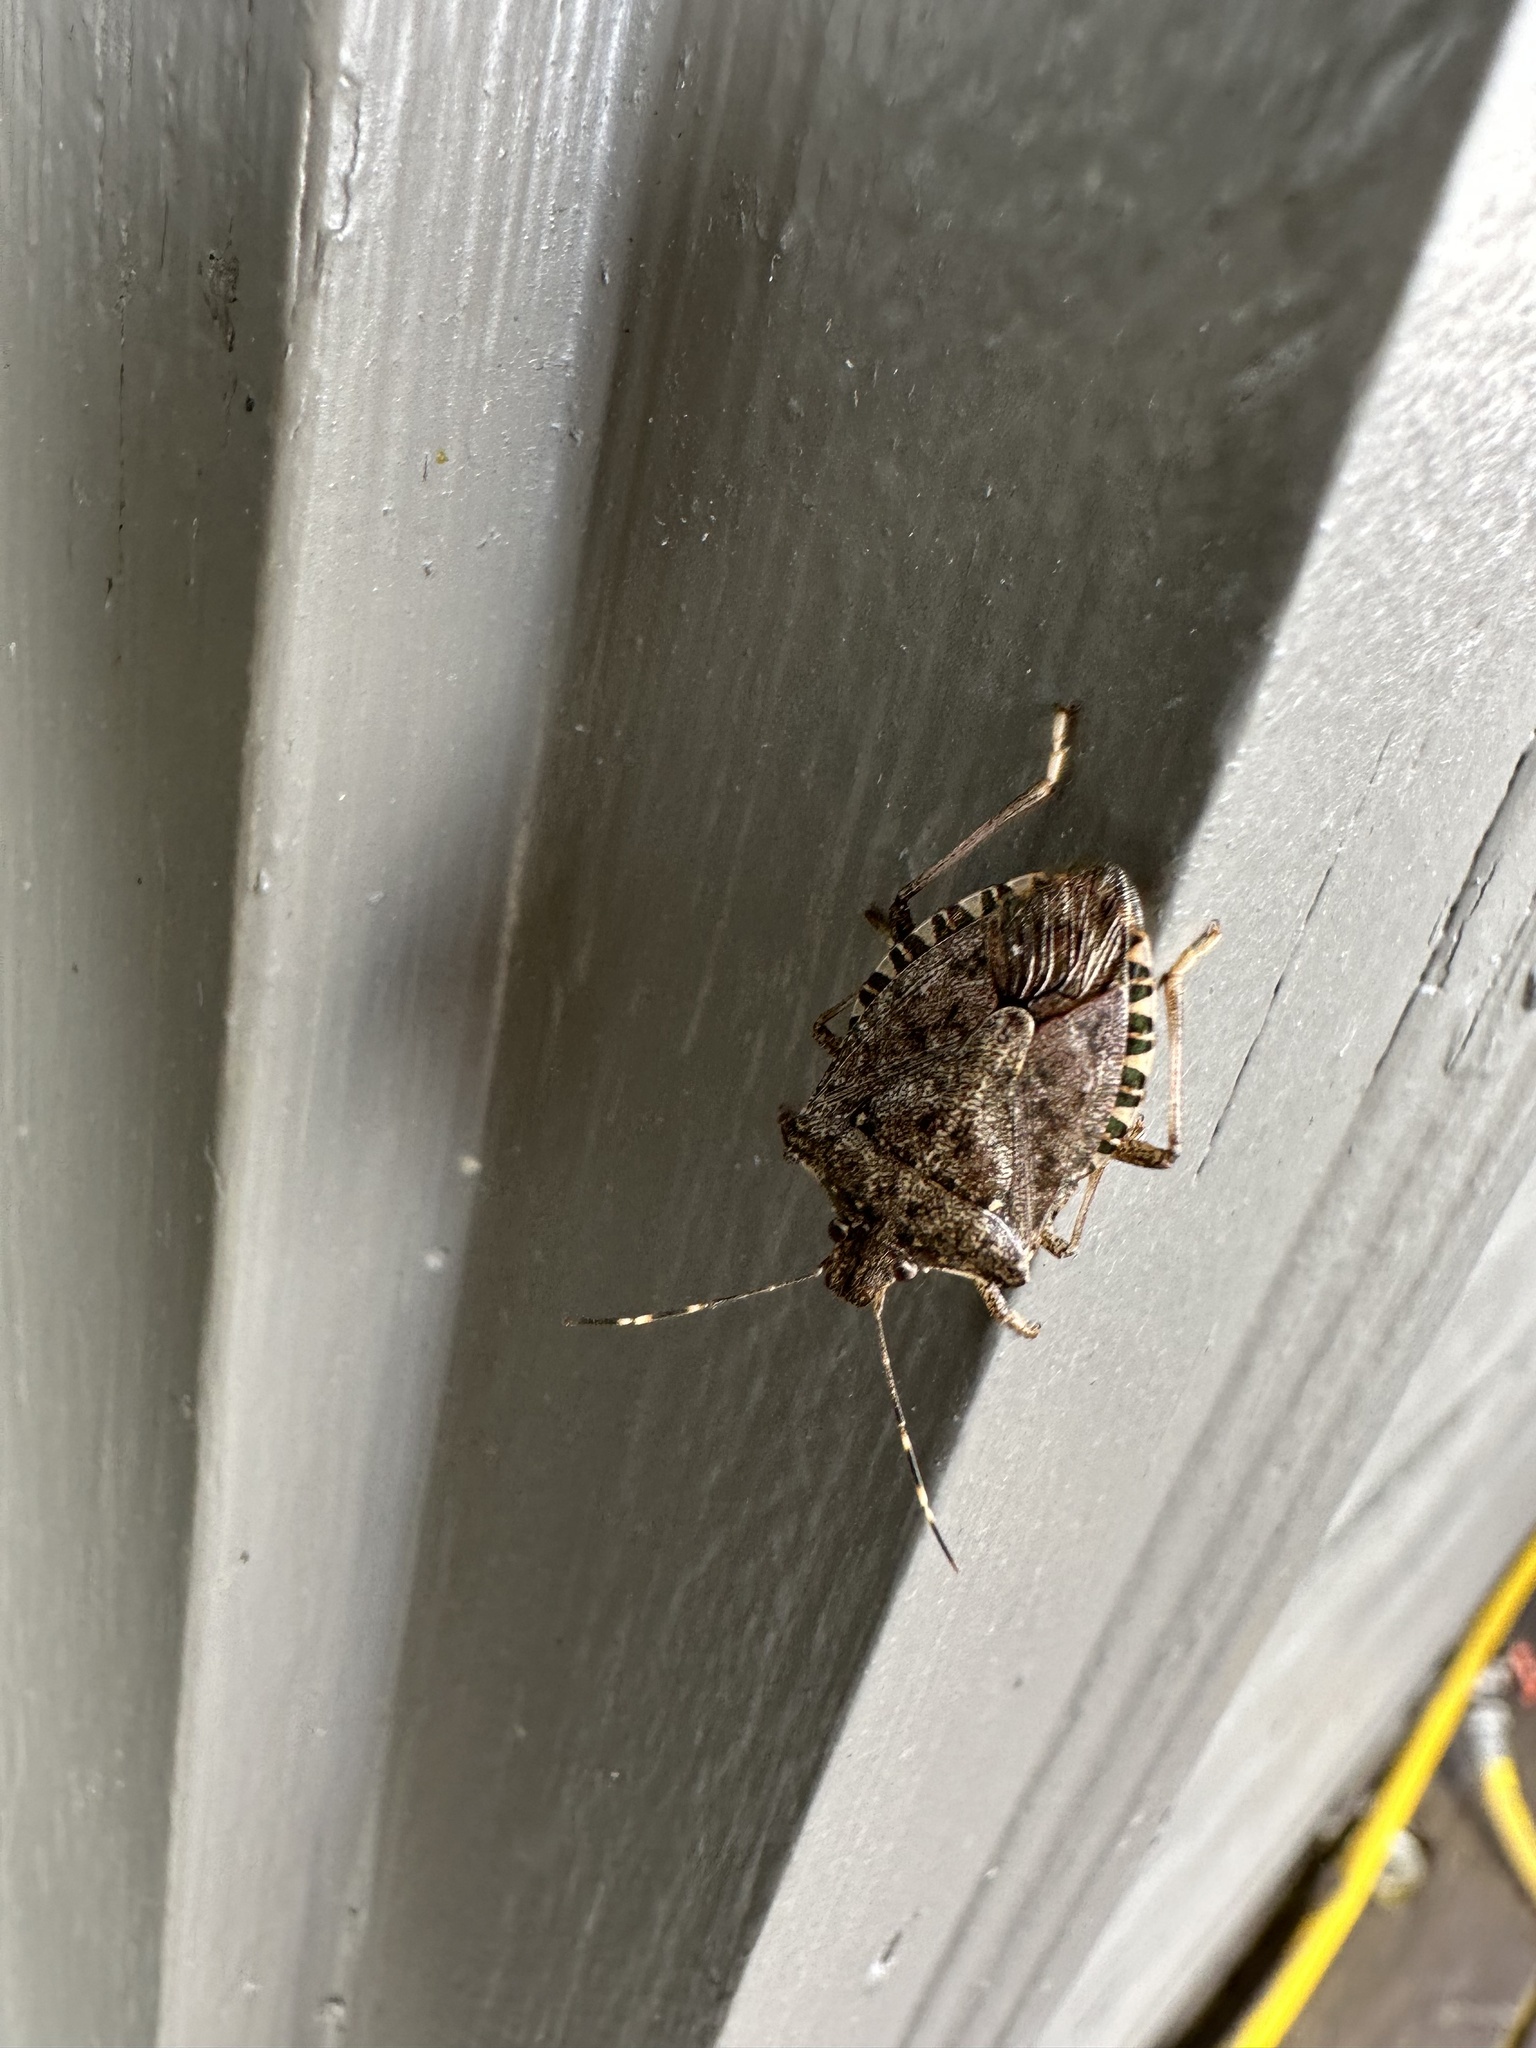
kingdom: Animalia
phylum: Arthropoda
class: Insecta
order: Hemiptera
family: Pentatomidae
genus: Halyomorpha
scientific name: Halyomorpha halys
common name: Brown marmorated stink bug
